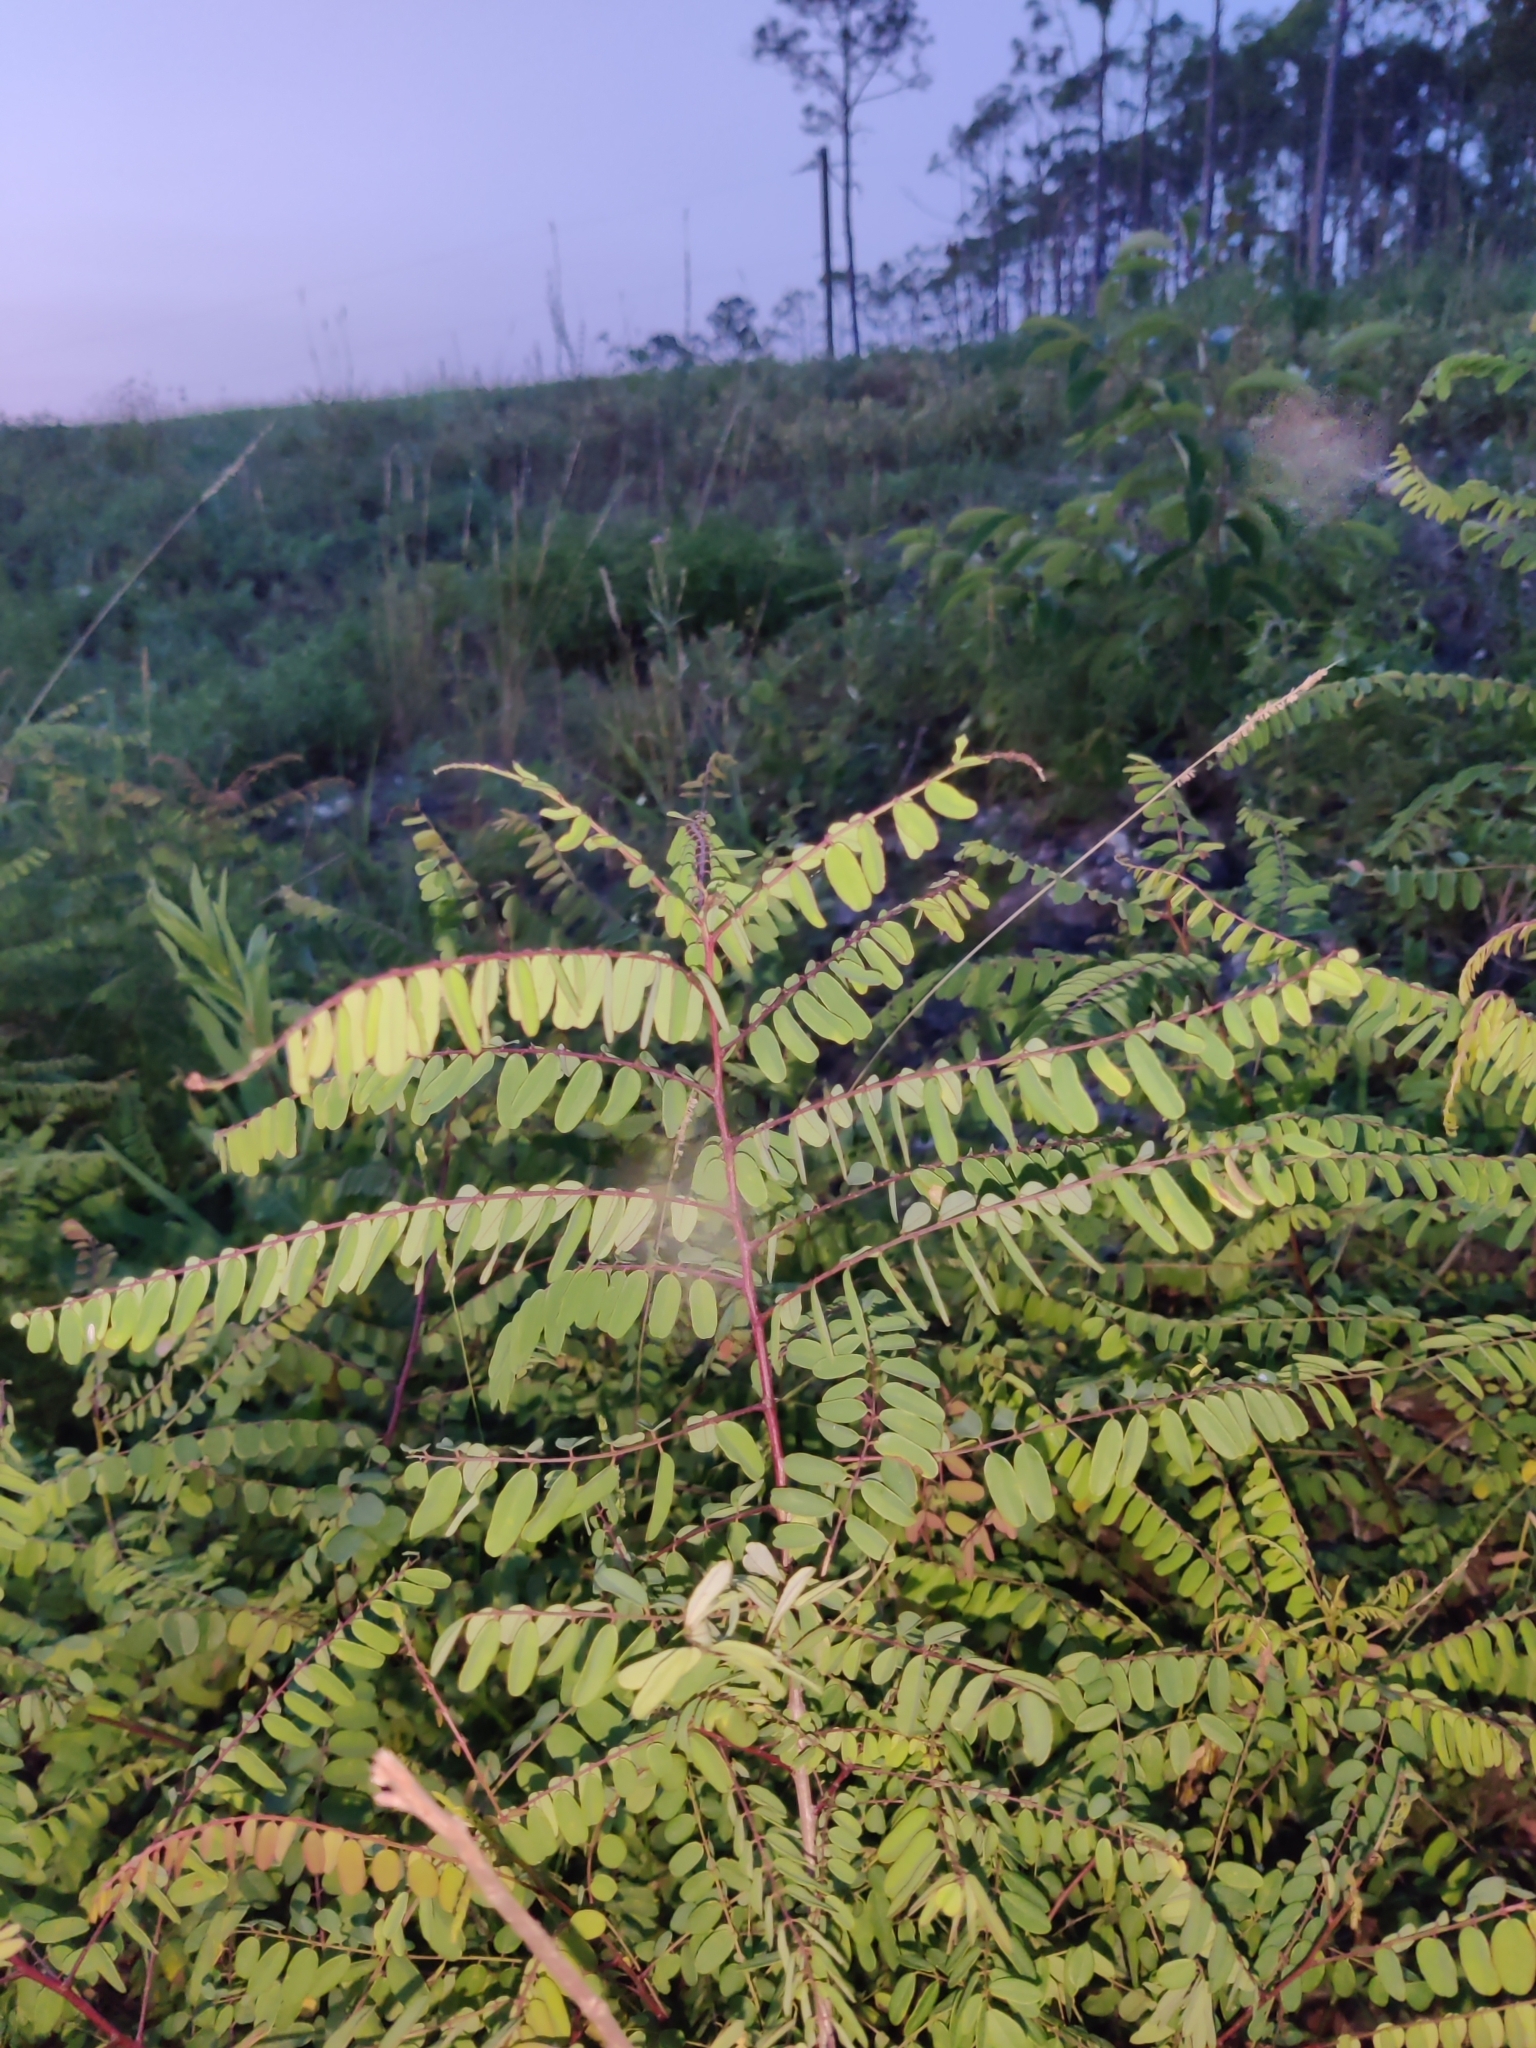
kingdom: Plantae
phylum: Tracheophyta
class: Magnoliopsida
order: Fabales
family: Fabaceae
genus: Amorpha
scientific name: Amorpha herbacea
